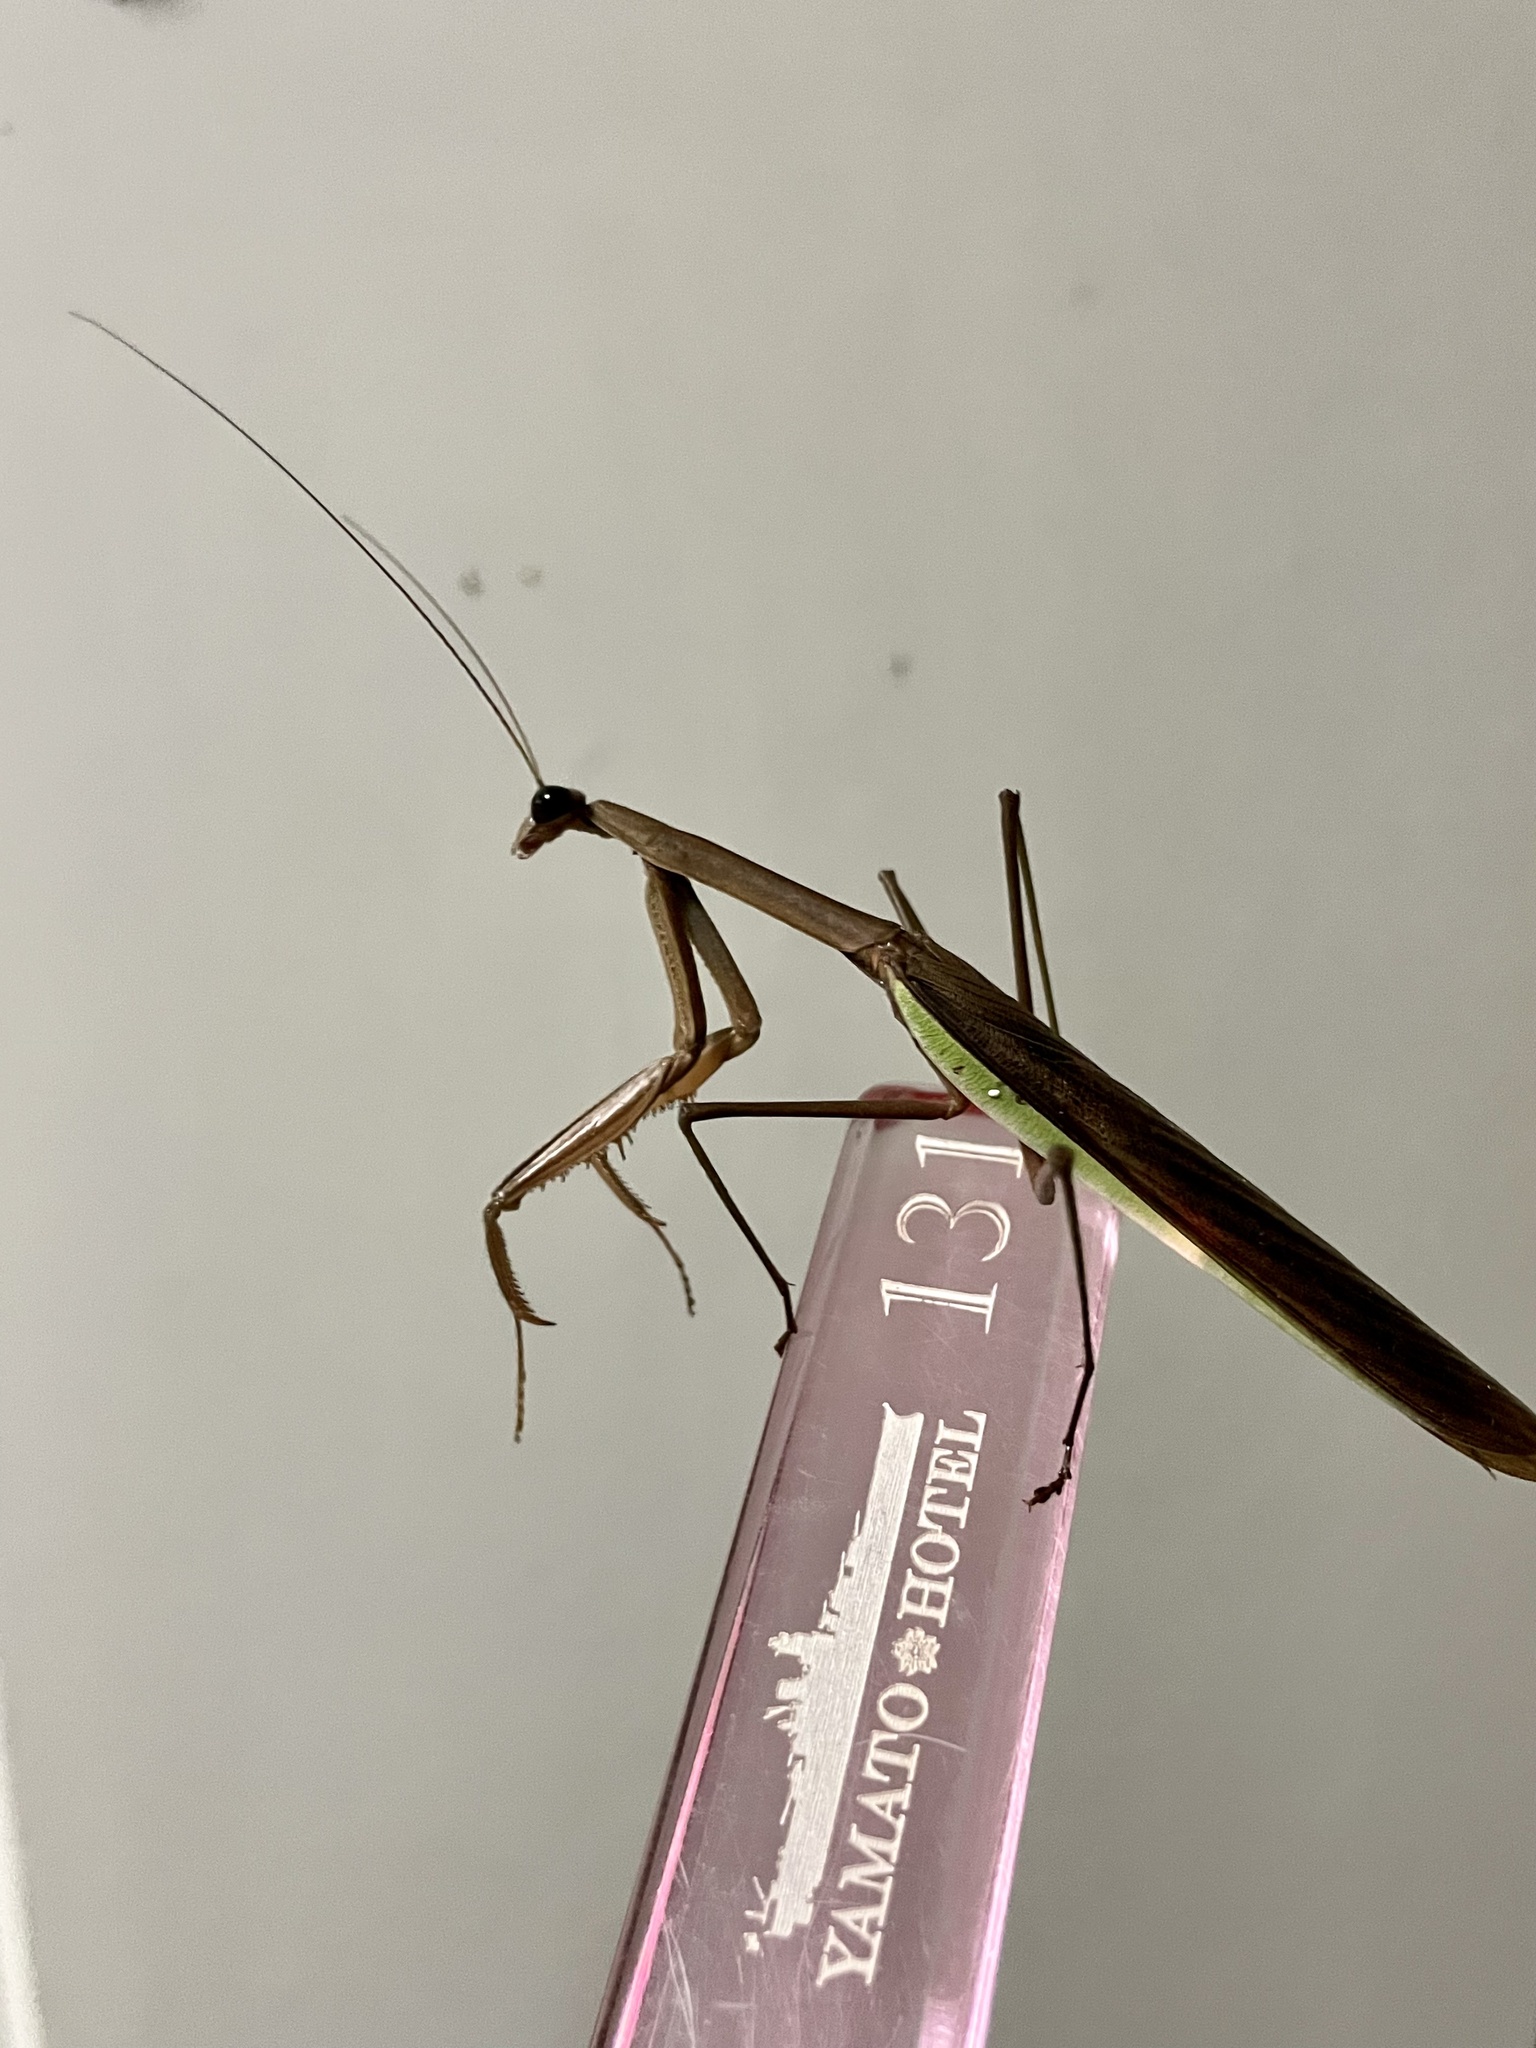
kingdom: Animalia
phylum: Arthropoda
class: Insecta
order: Mantodea
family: Mantidae
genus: Tenodera
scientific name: Tenodera sinensis
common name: Chinese mantis
